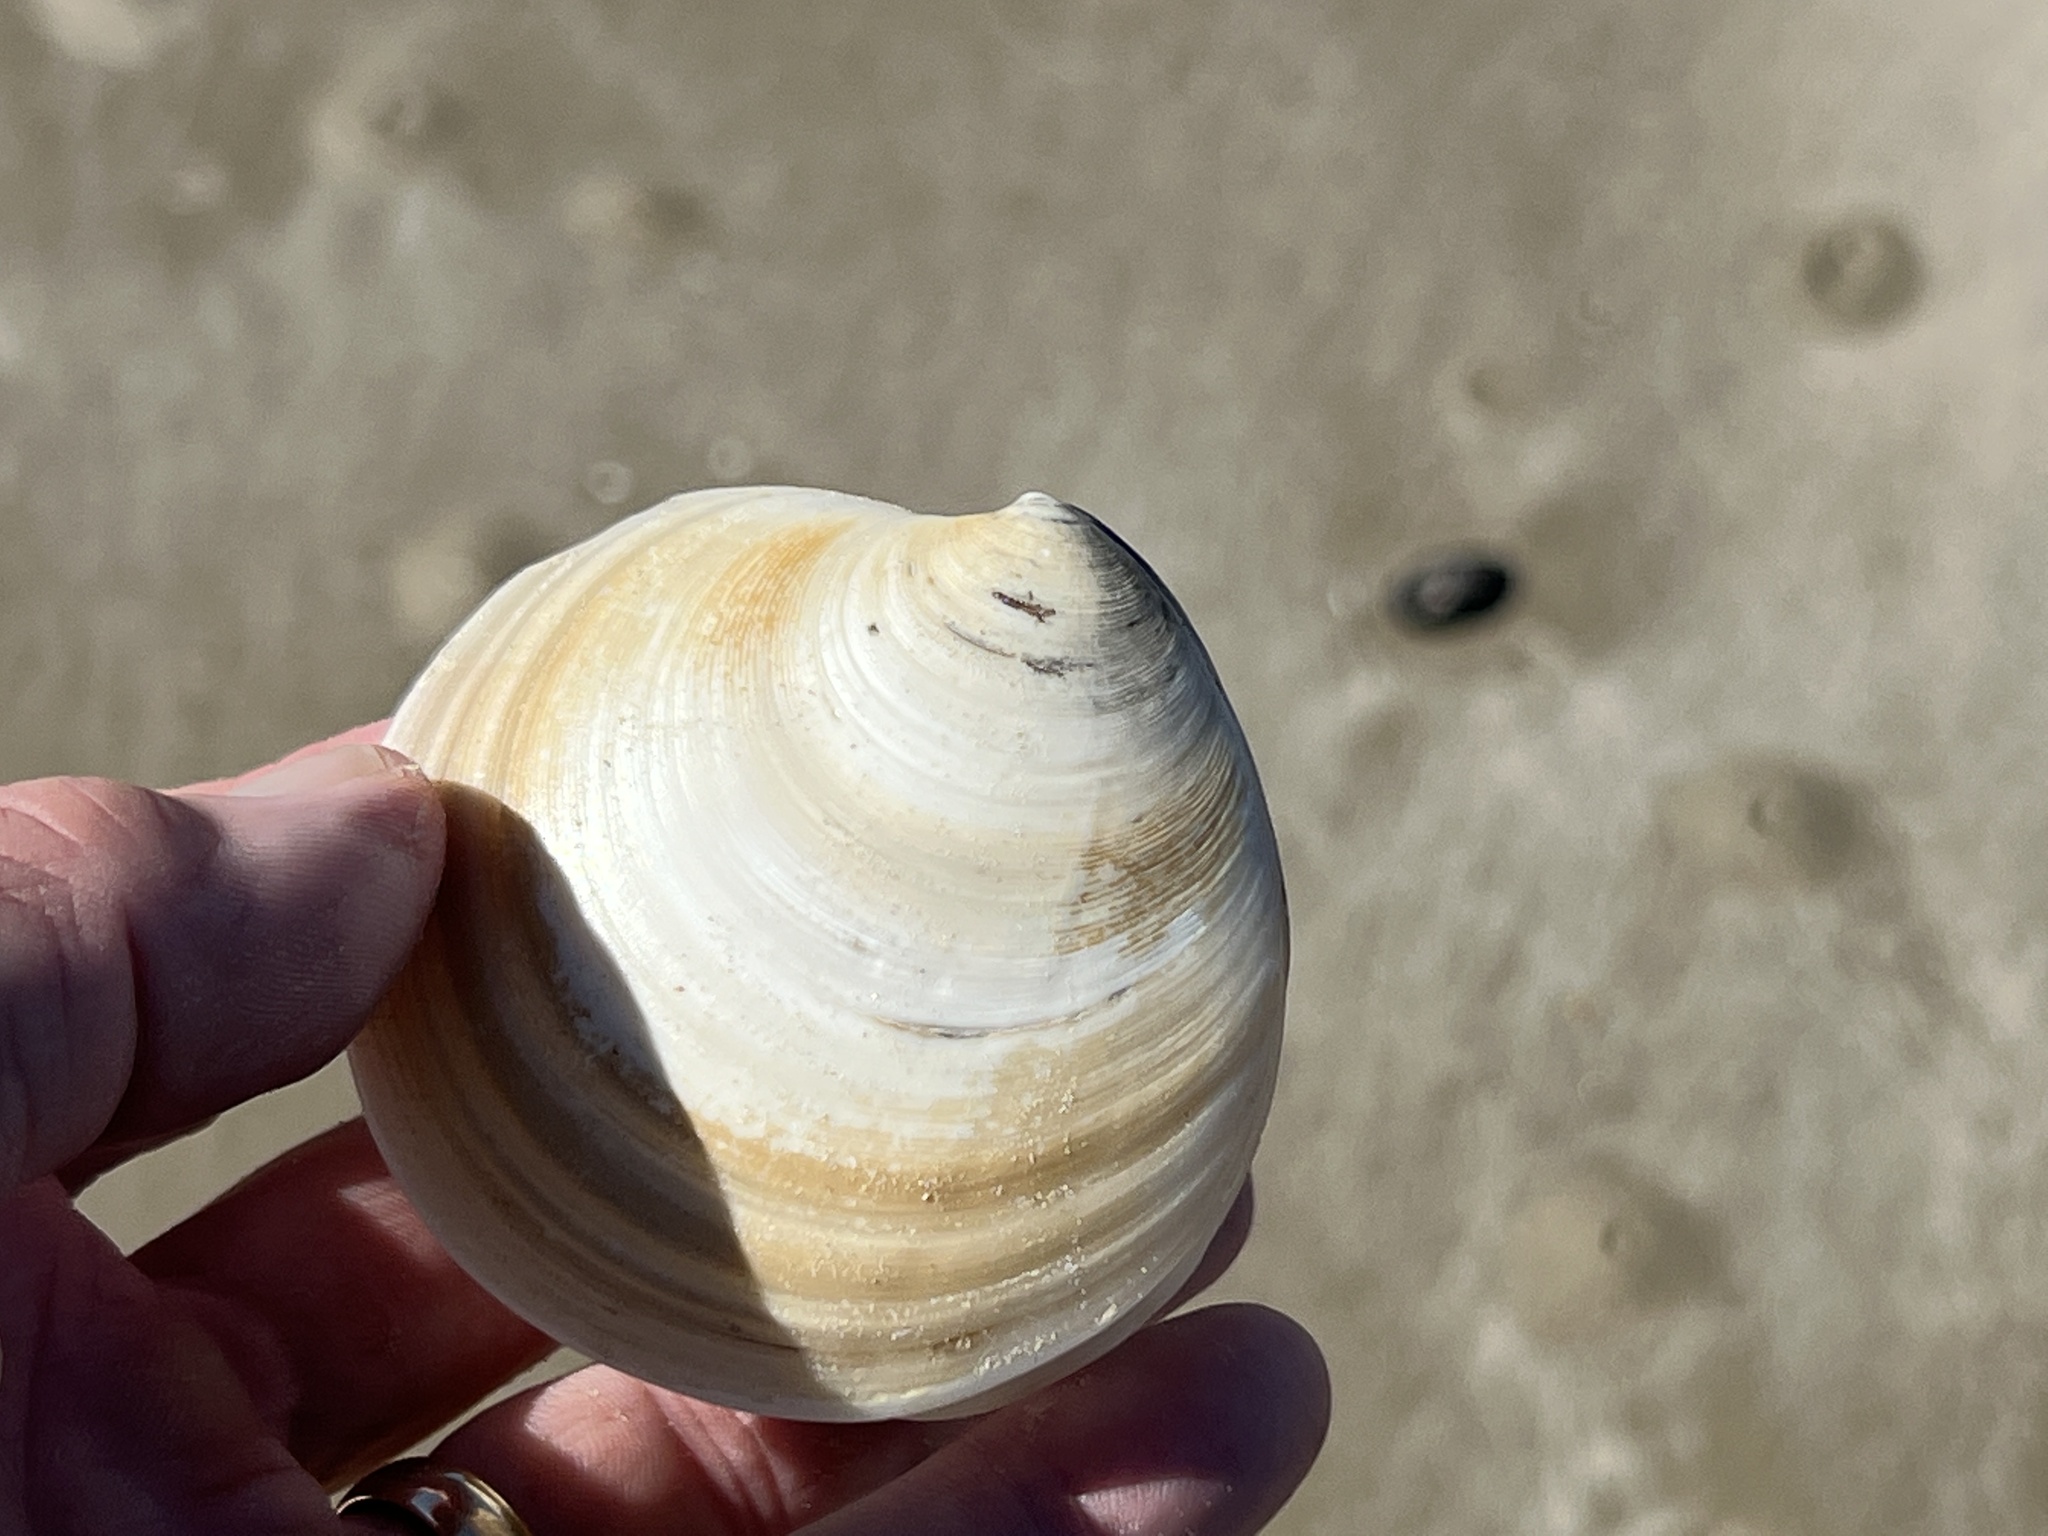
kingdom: Animalia
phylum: Mollusca
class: Bivalvia
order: Venerida
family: Veneridae
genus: Dosinia
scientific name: Dosinia discus
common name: Disk dosinia
